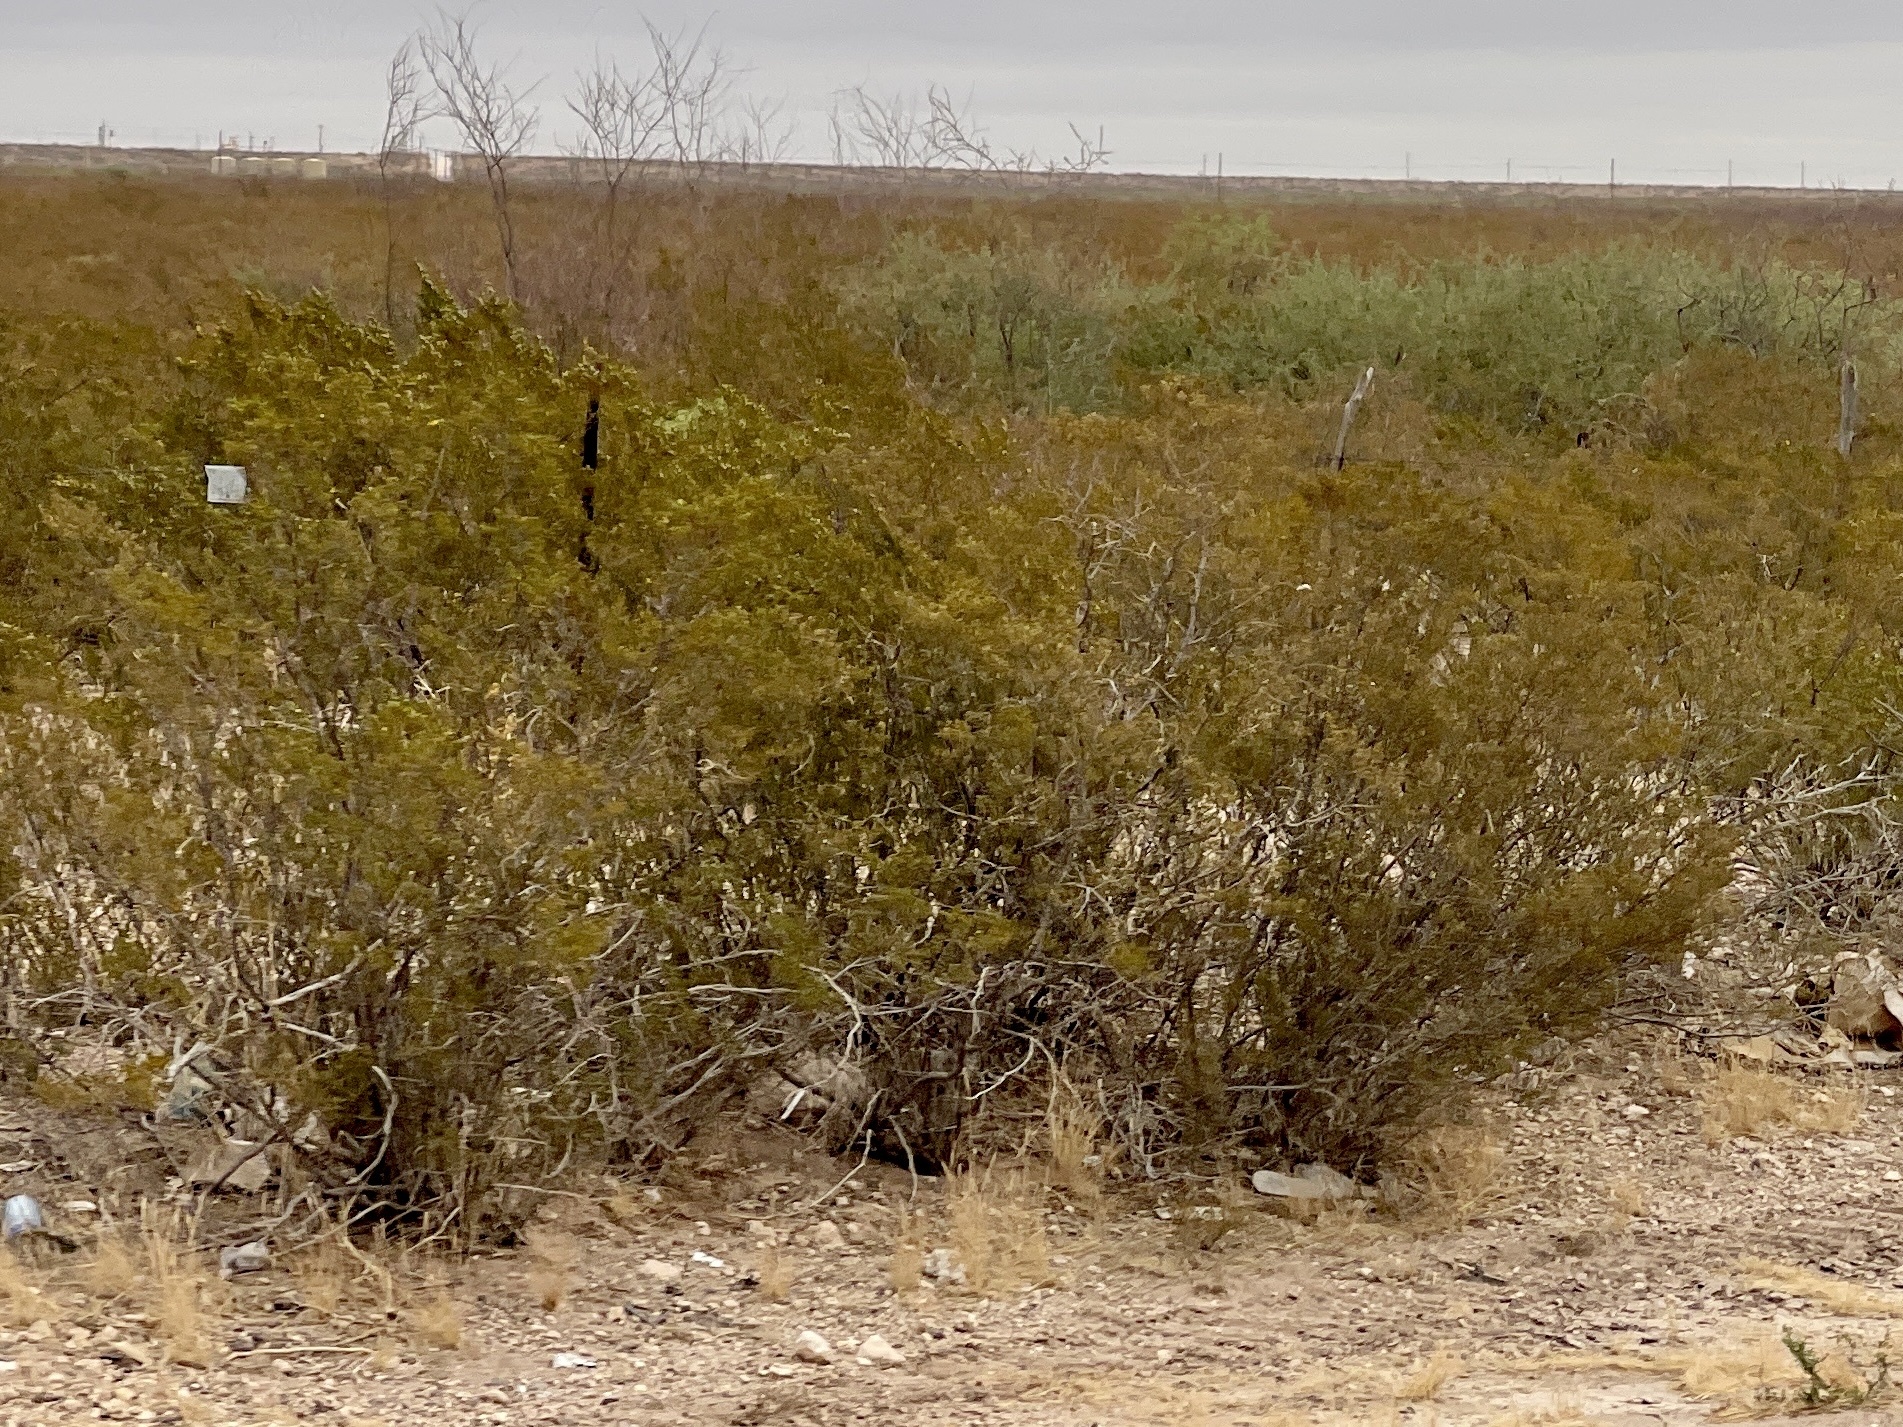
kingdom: Plantae
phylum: Tracheophyta
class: Magnoliopsida
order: Zygophyllales
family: Zygophyllaceae
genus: Larrea
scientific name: Larrea tridentata
